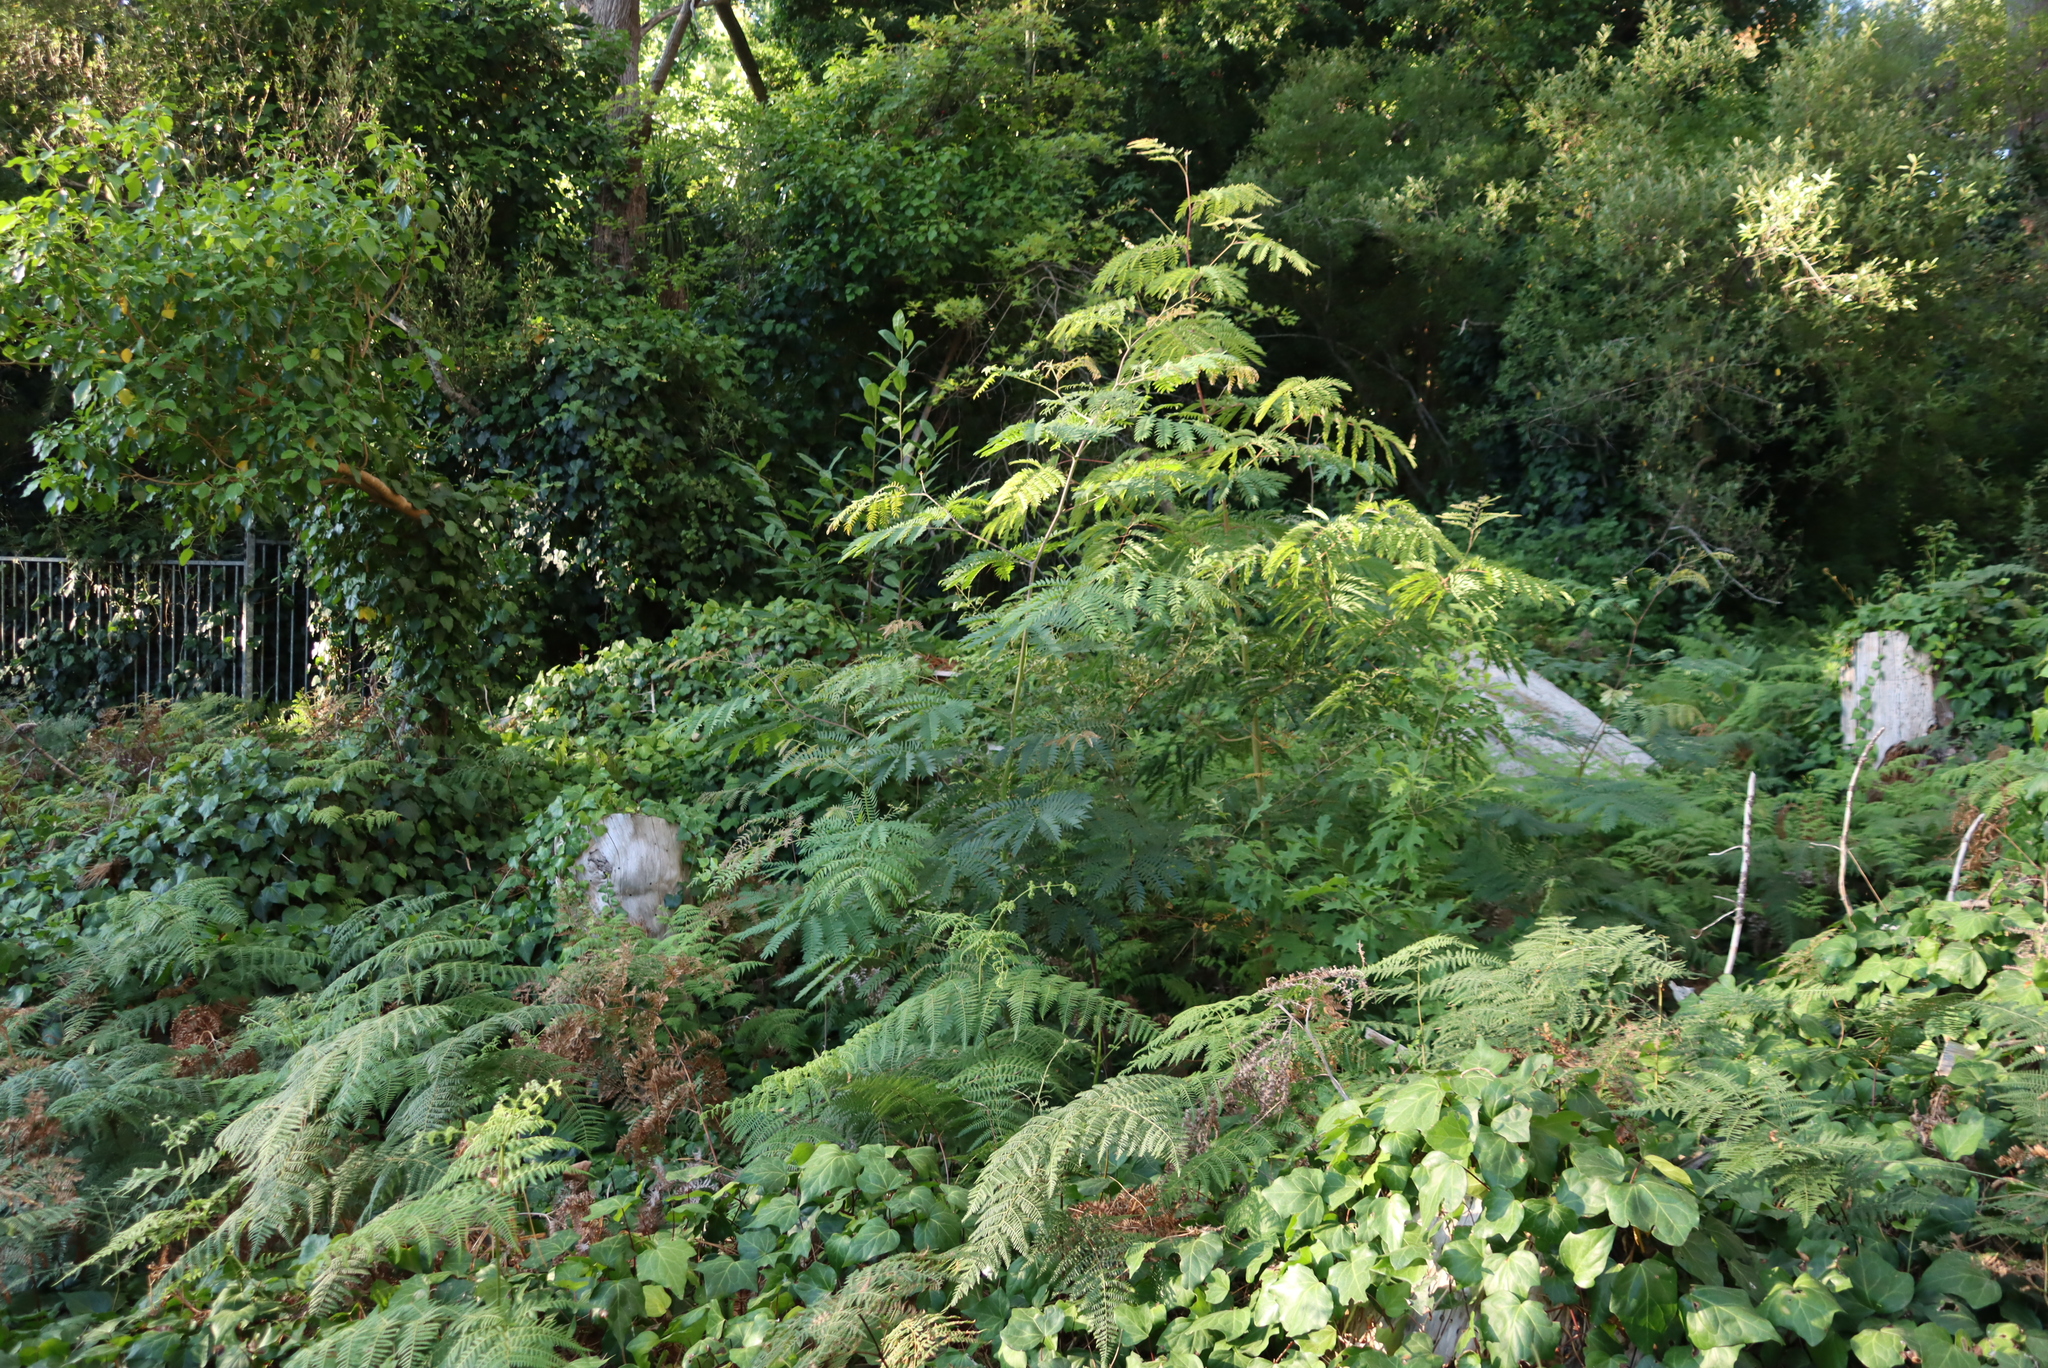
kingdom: Plantae
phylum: Tracheophyta
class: Magnoliopsida
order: Fabales
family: Fabaceae
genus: Acacia
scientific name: Acacia elata
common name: Cedar wattle
